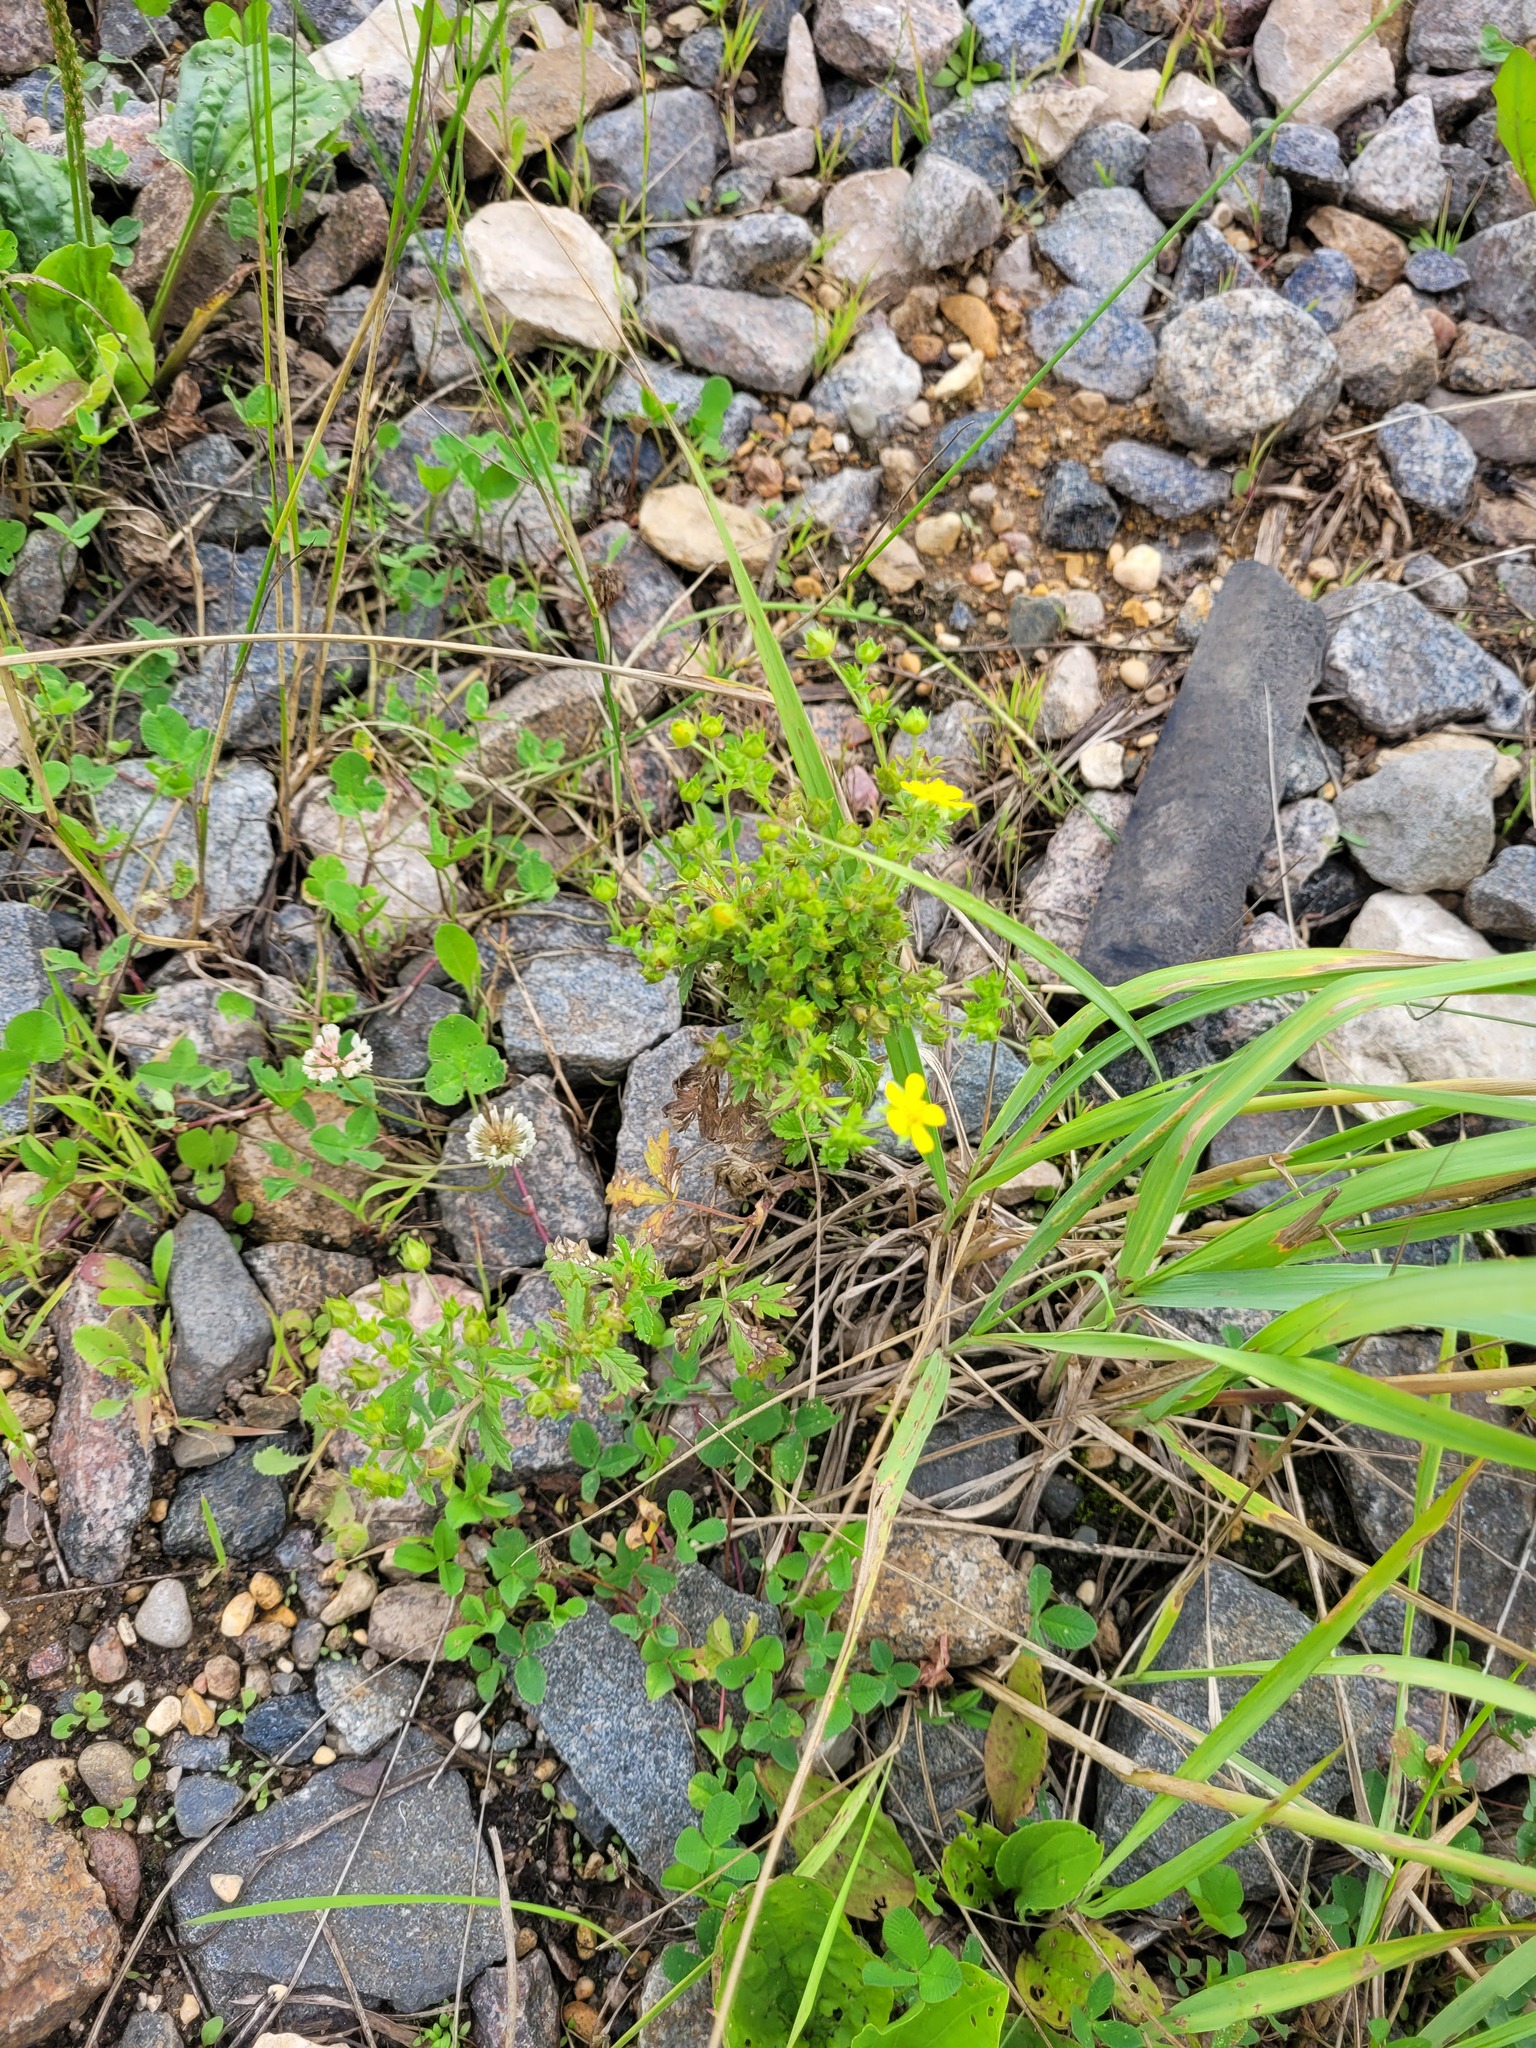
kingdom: Plantae
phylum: Tracheophyta
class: Magnoliopsida
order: Rosales
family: Rosaceae
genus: Potentilla
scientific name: Potentilla intermedia
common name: Downy cinquefoil
